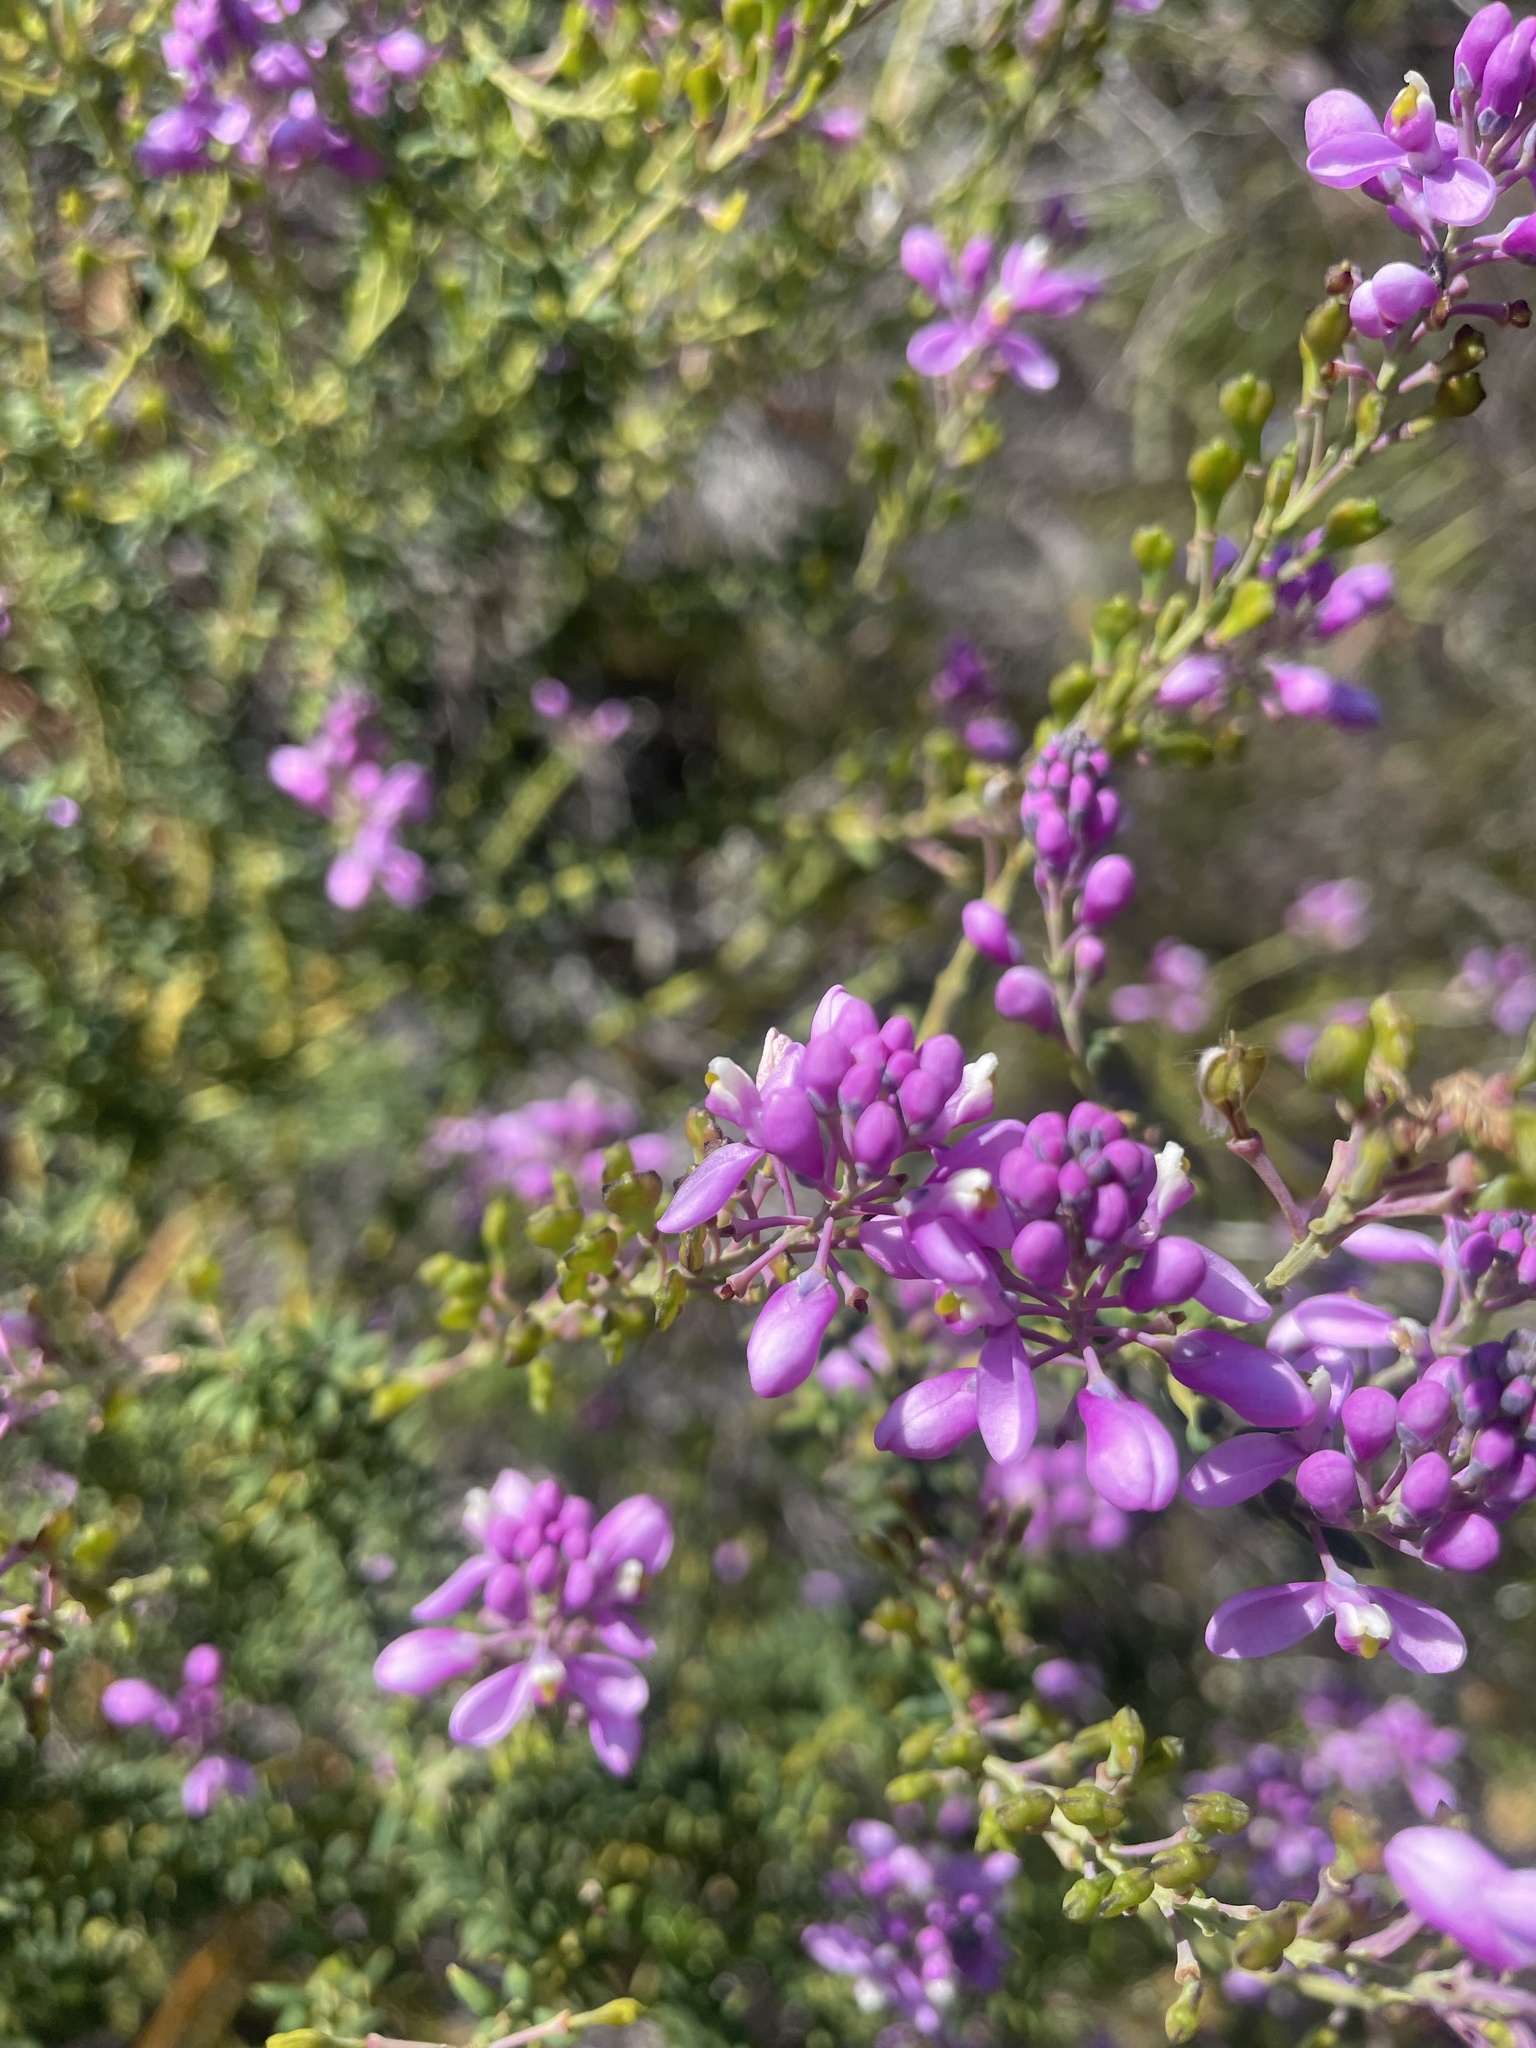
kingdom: Plantae
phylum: Tracheophyta
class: Magnoliopsida
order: Fabales
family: Polygalaceae
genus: Comesperma
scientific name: Comesperma ericinum
